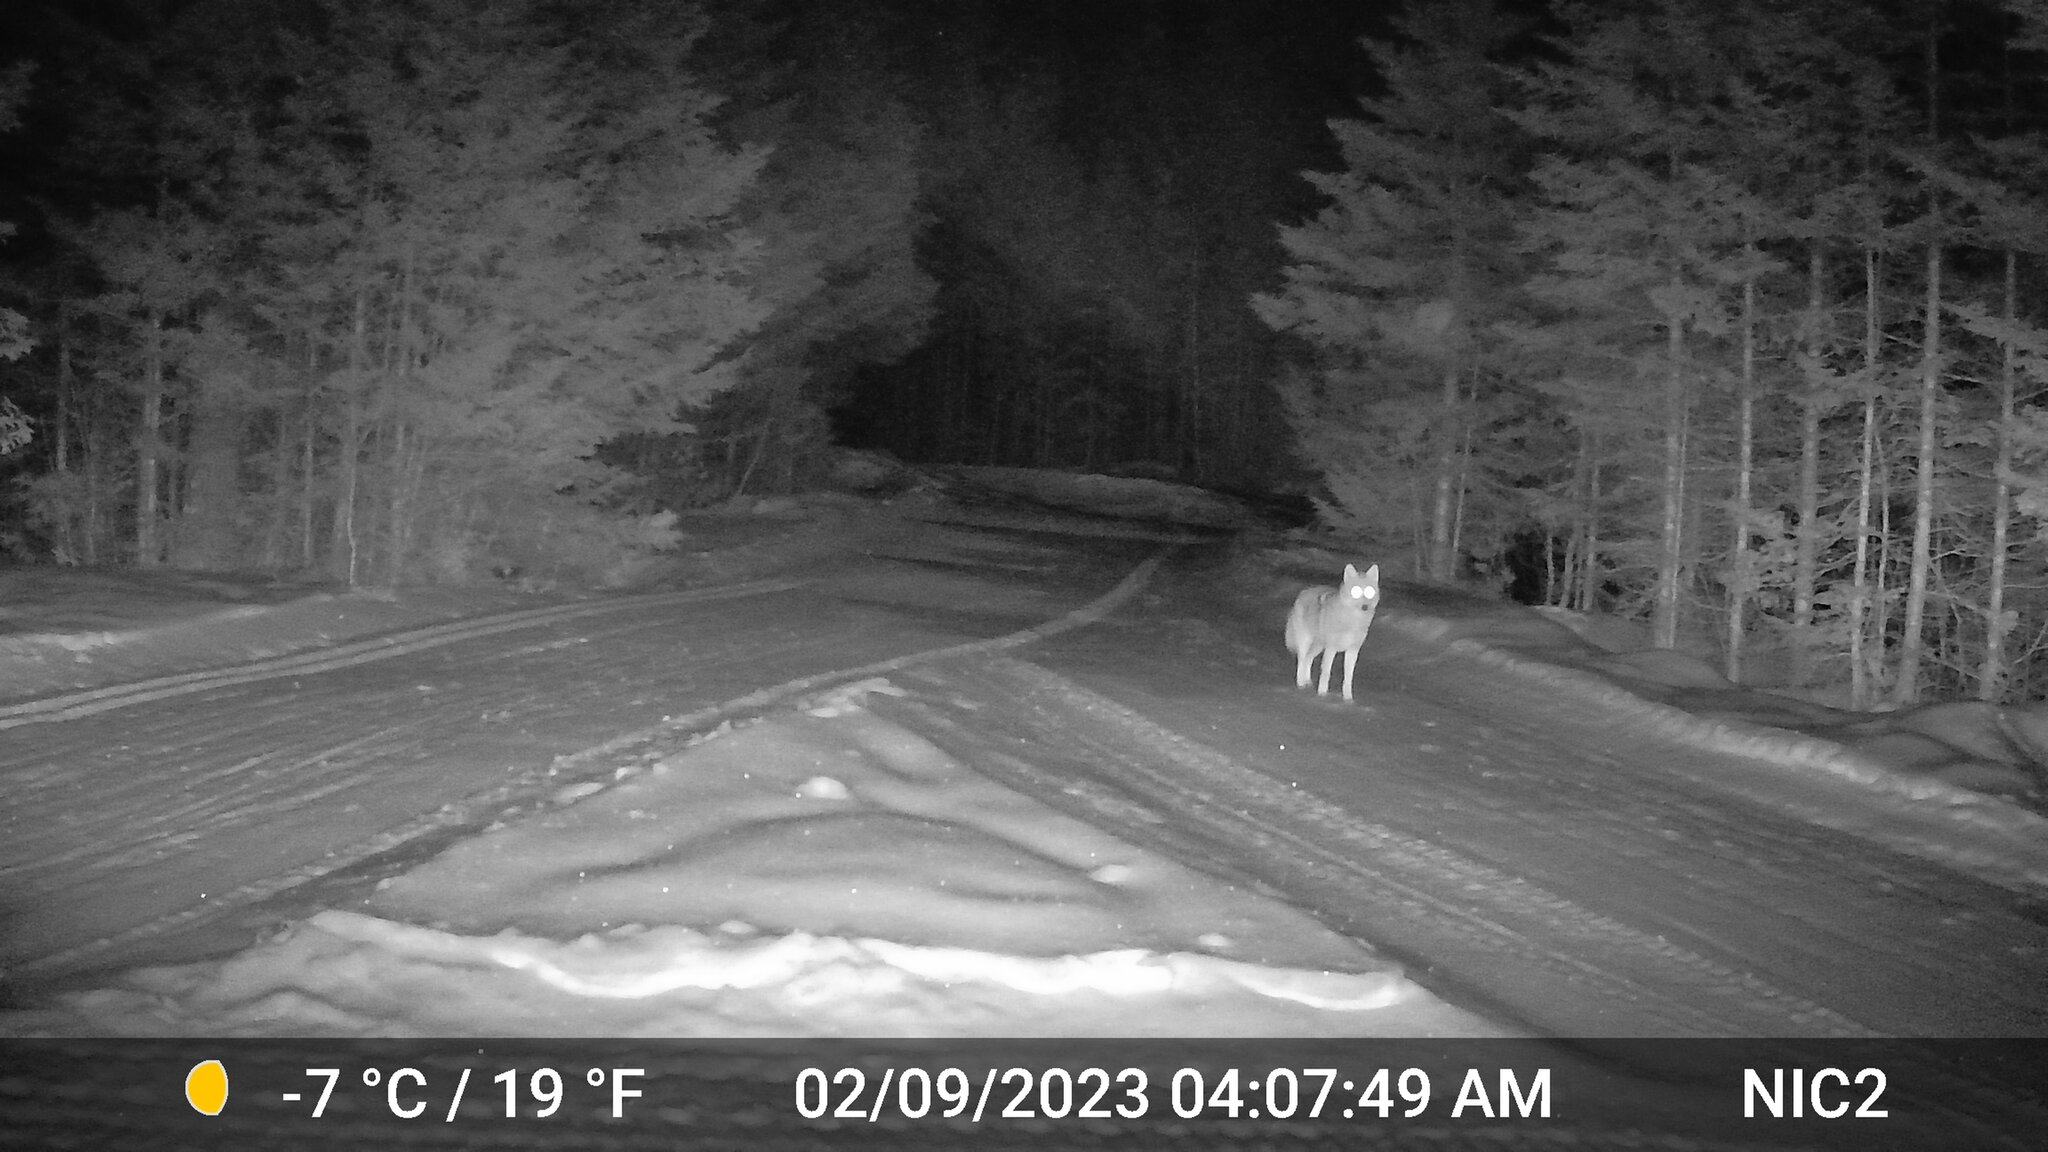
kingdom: Animalia
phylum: Chordata
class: Mammalia
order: Carnivora
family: Canidae
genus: Canis
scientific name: Canis latrans
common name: Coyote
